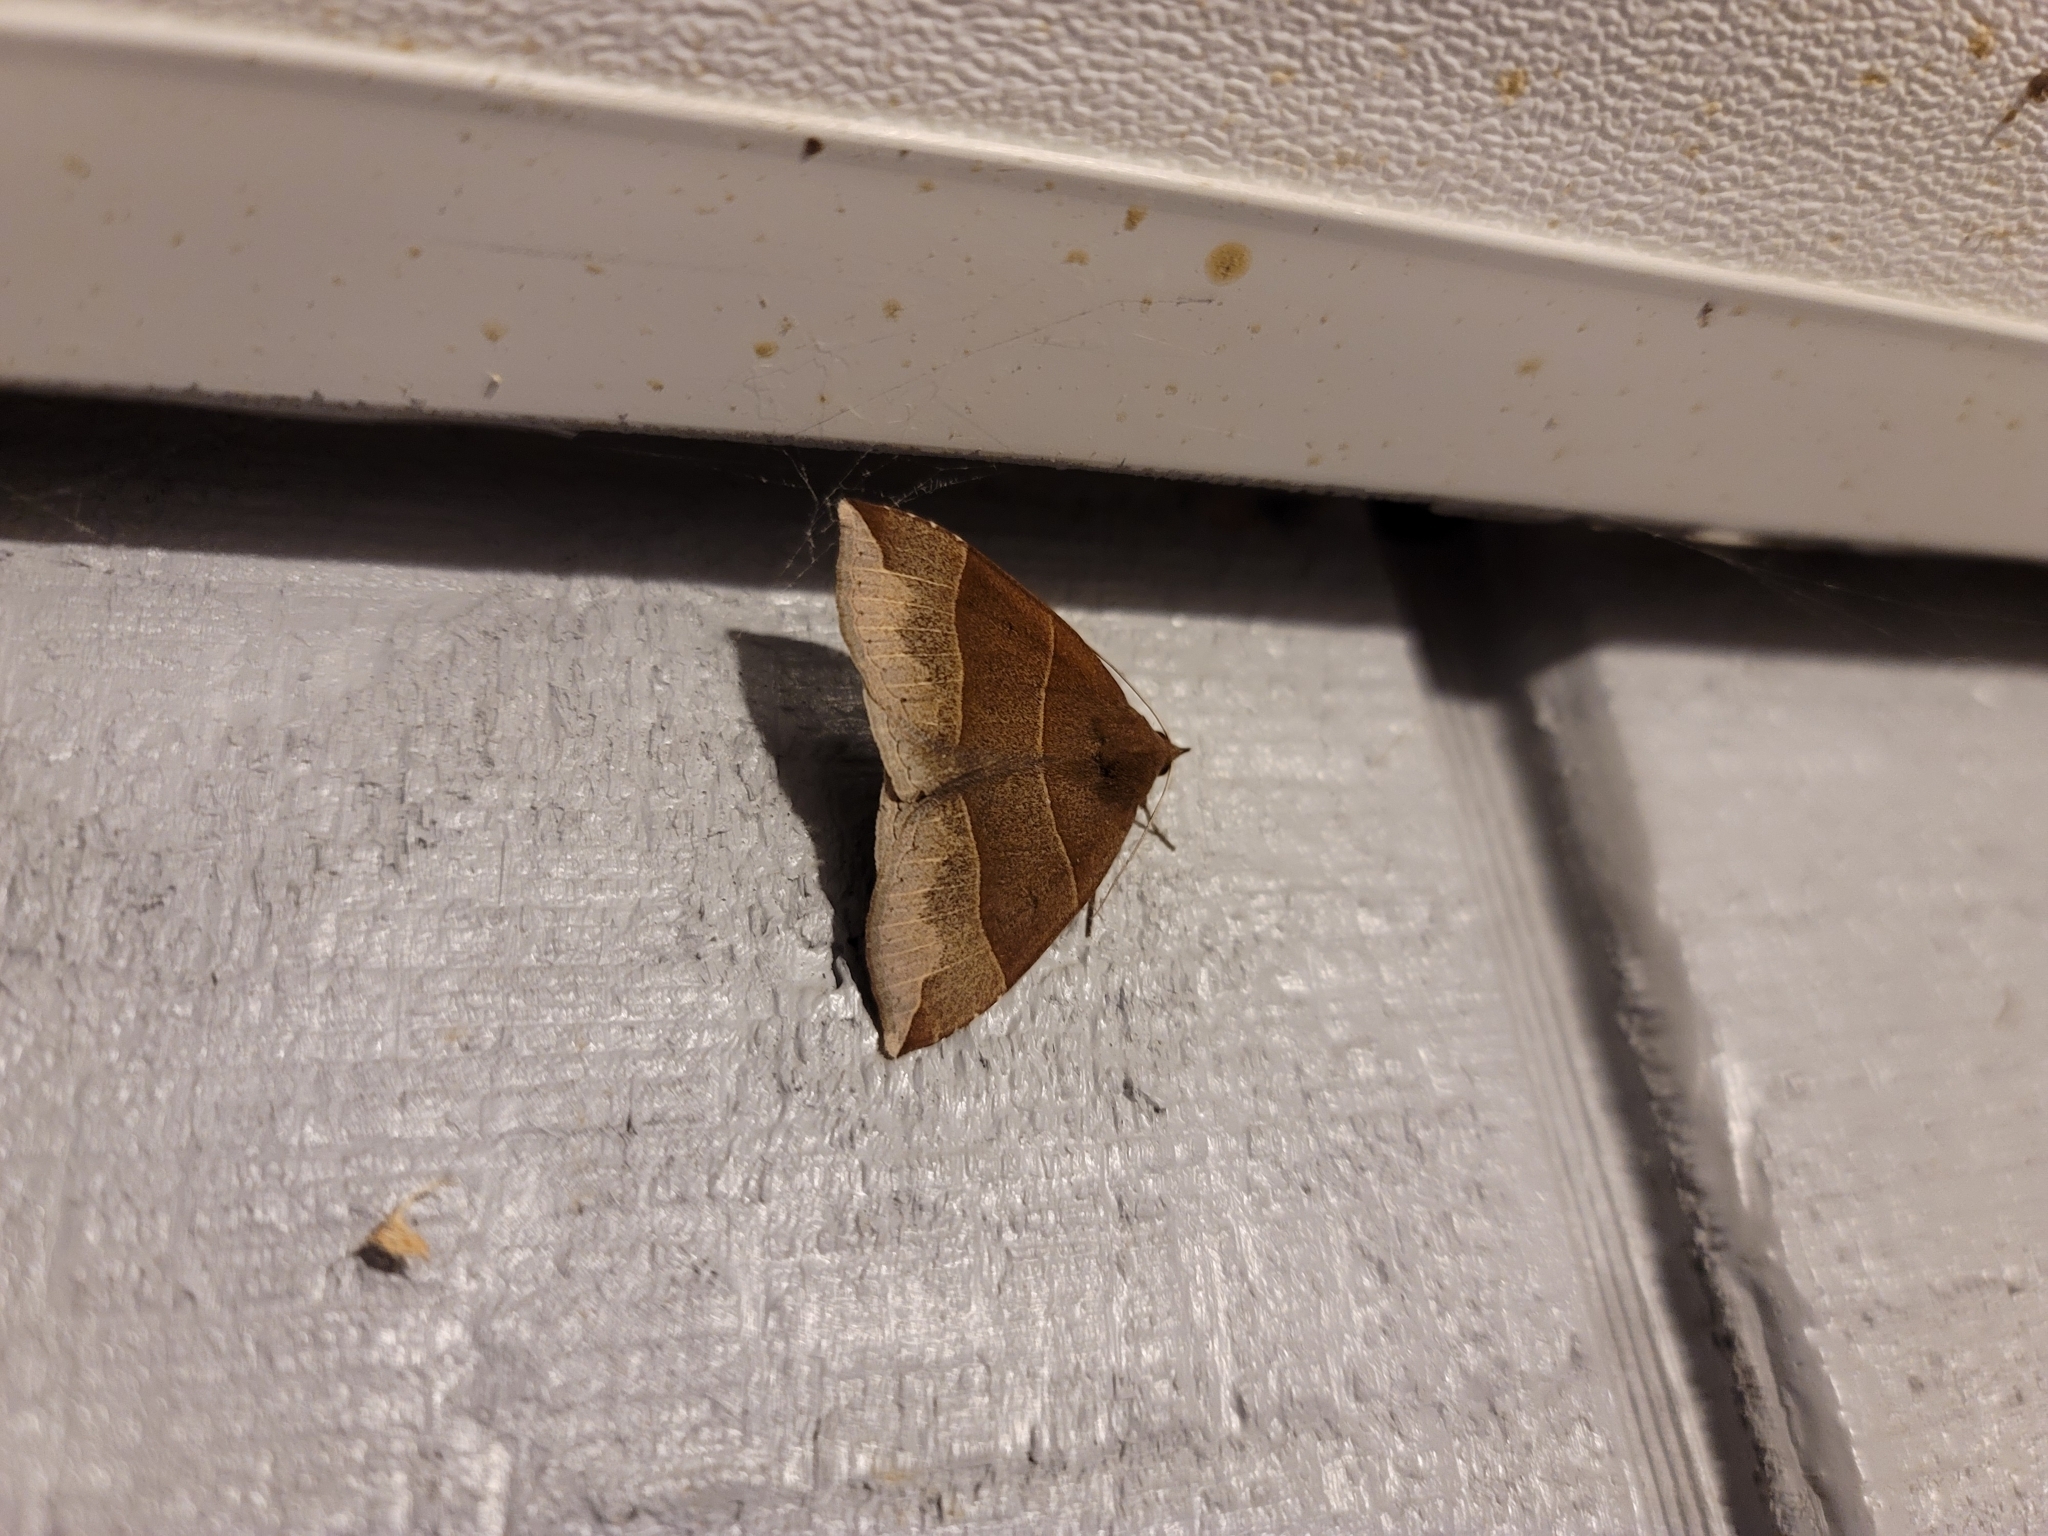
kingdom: Animalia
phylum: Arthropoda
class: Insecta
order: Lepidoptera
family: Erebidae
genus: Parallelia
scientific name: Parallelia bistriaris
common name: Maple looper moth
